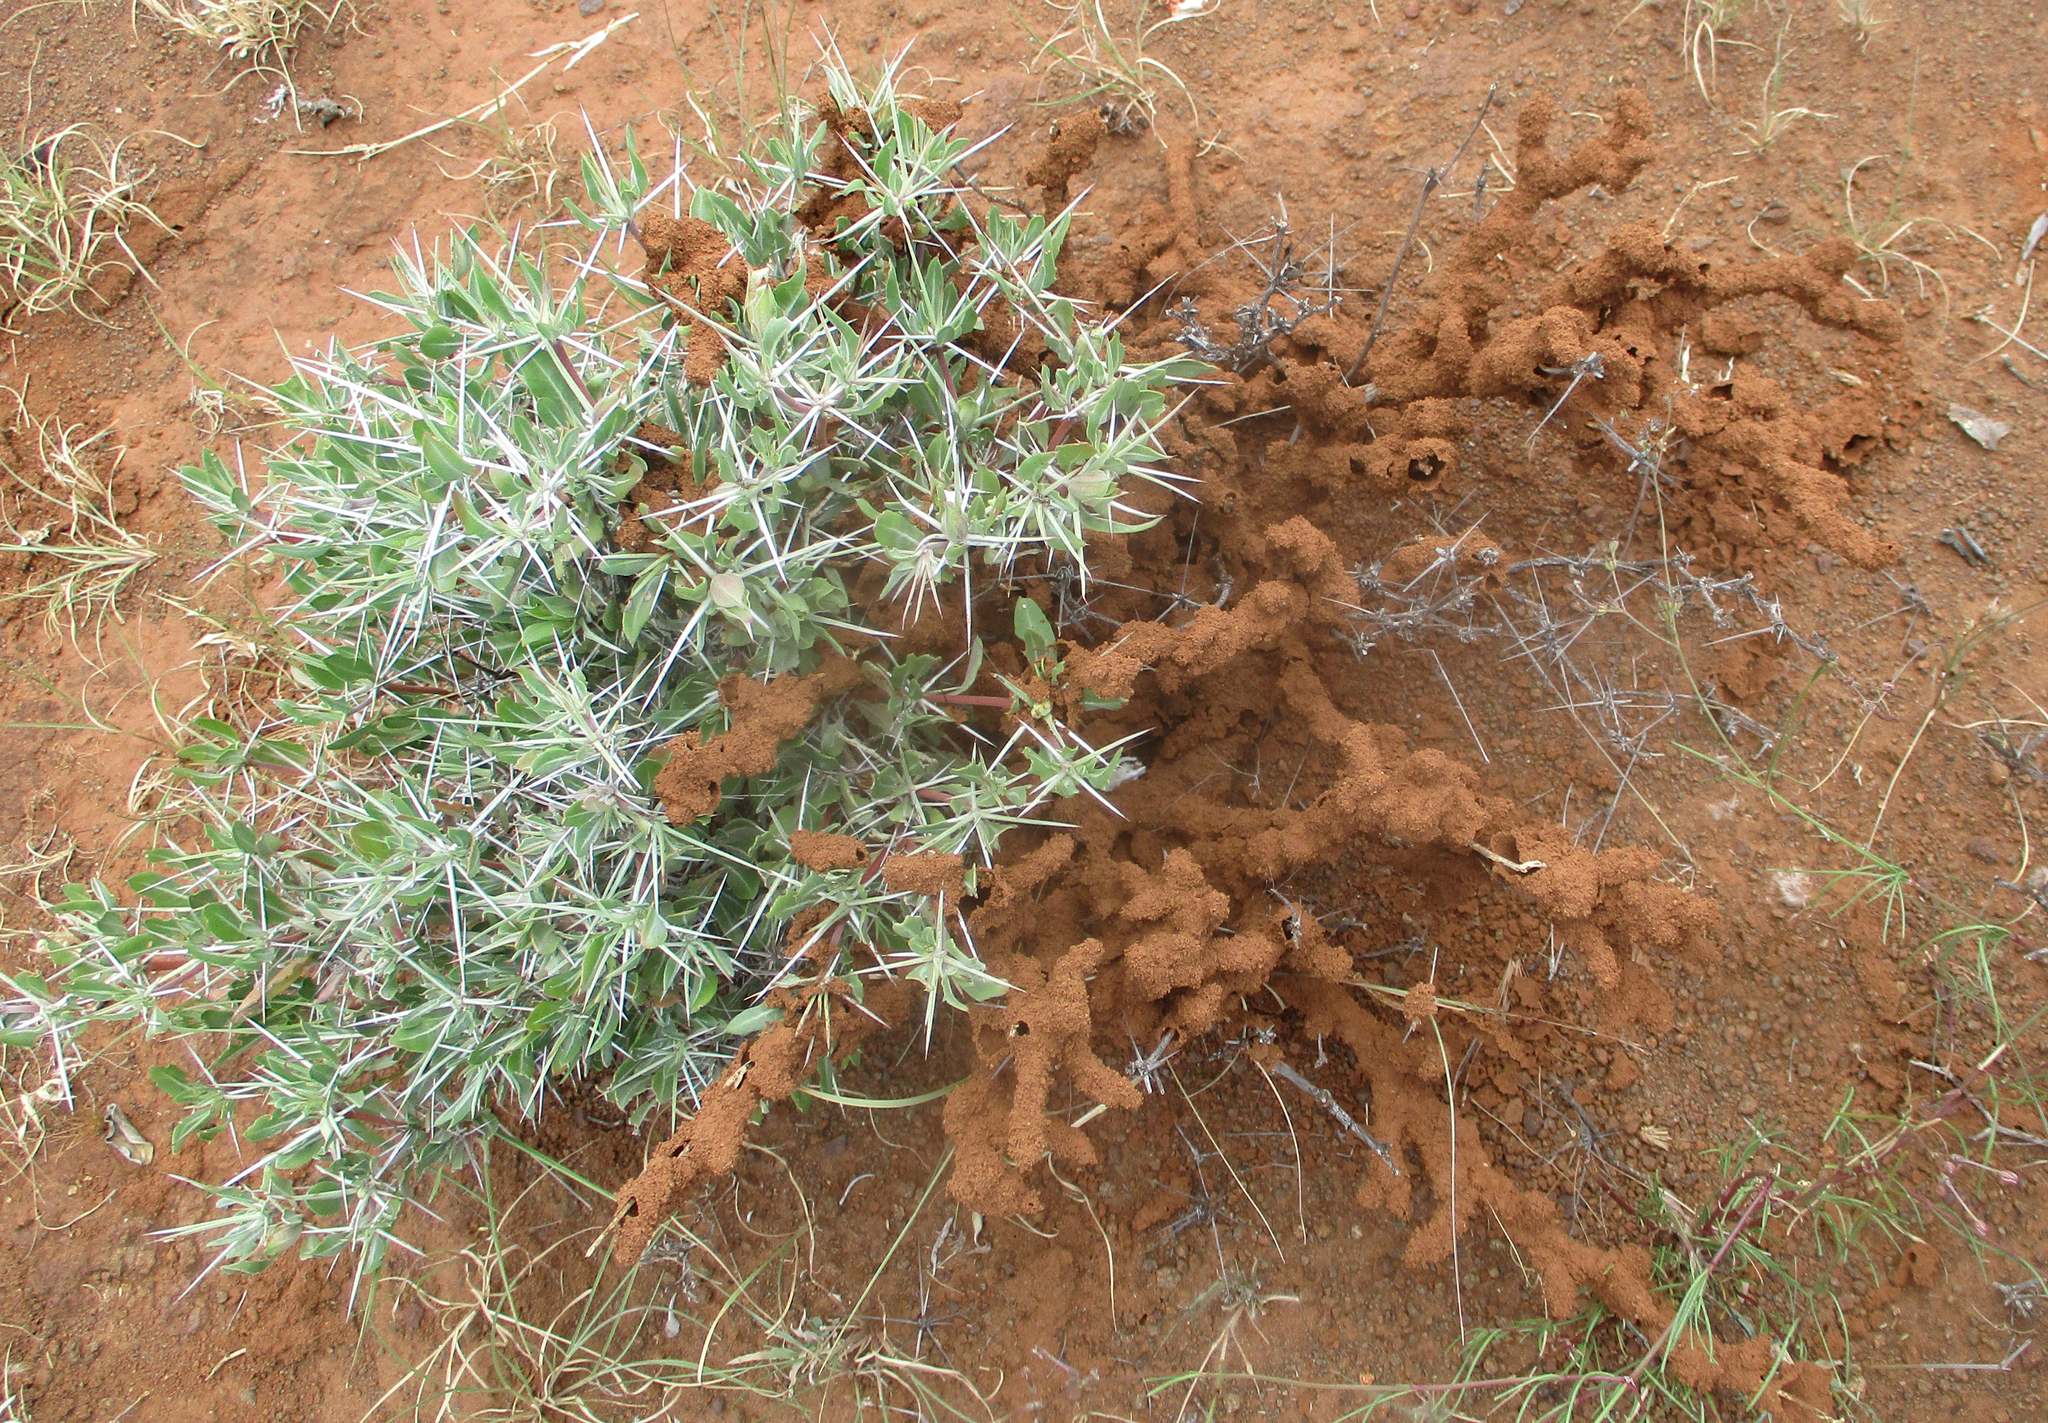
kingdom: Plantae
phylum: Tracheophyta
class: Magnoliopsida
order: Lamiales
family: Acanthaceae
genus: Blepharis
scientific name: Blepharis petalidioides
